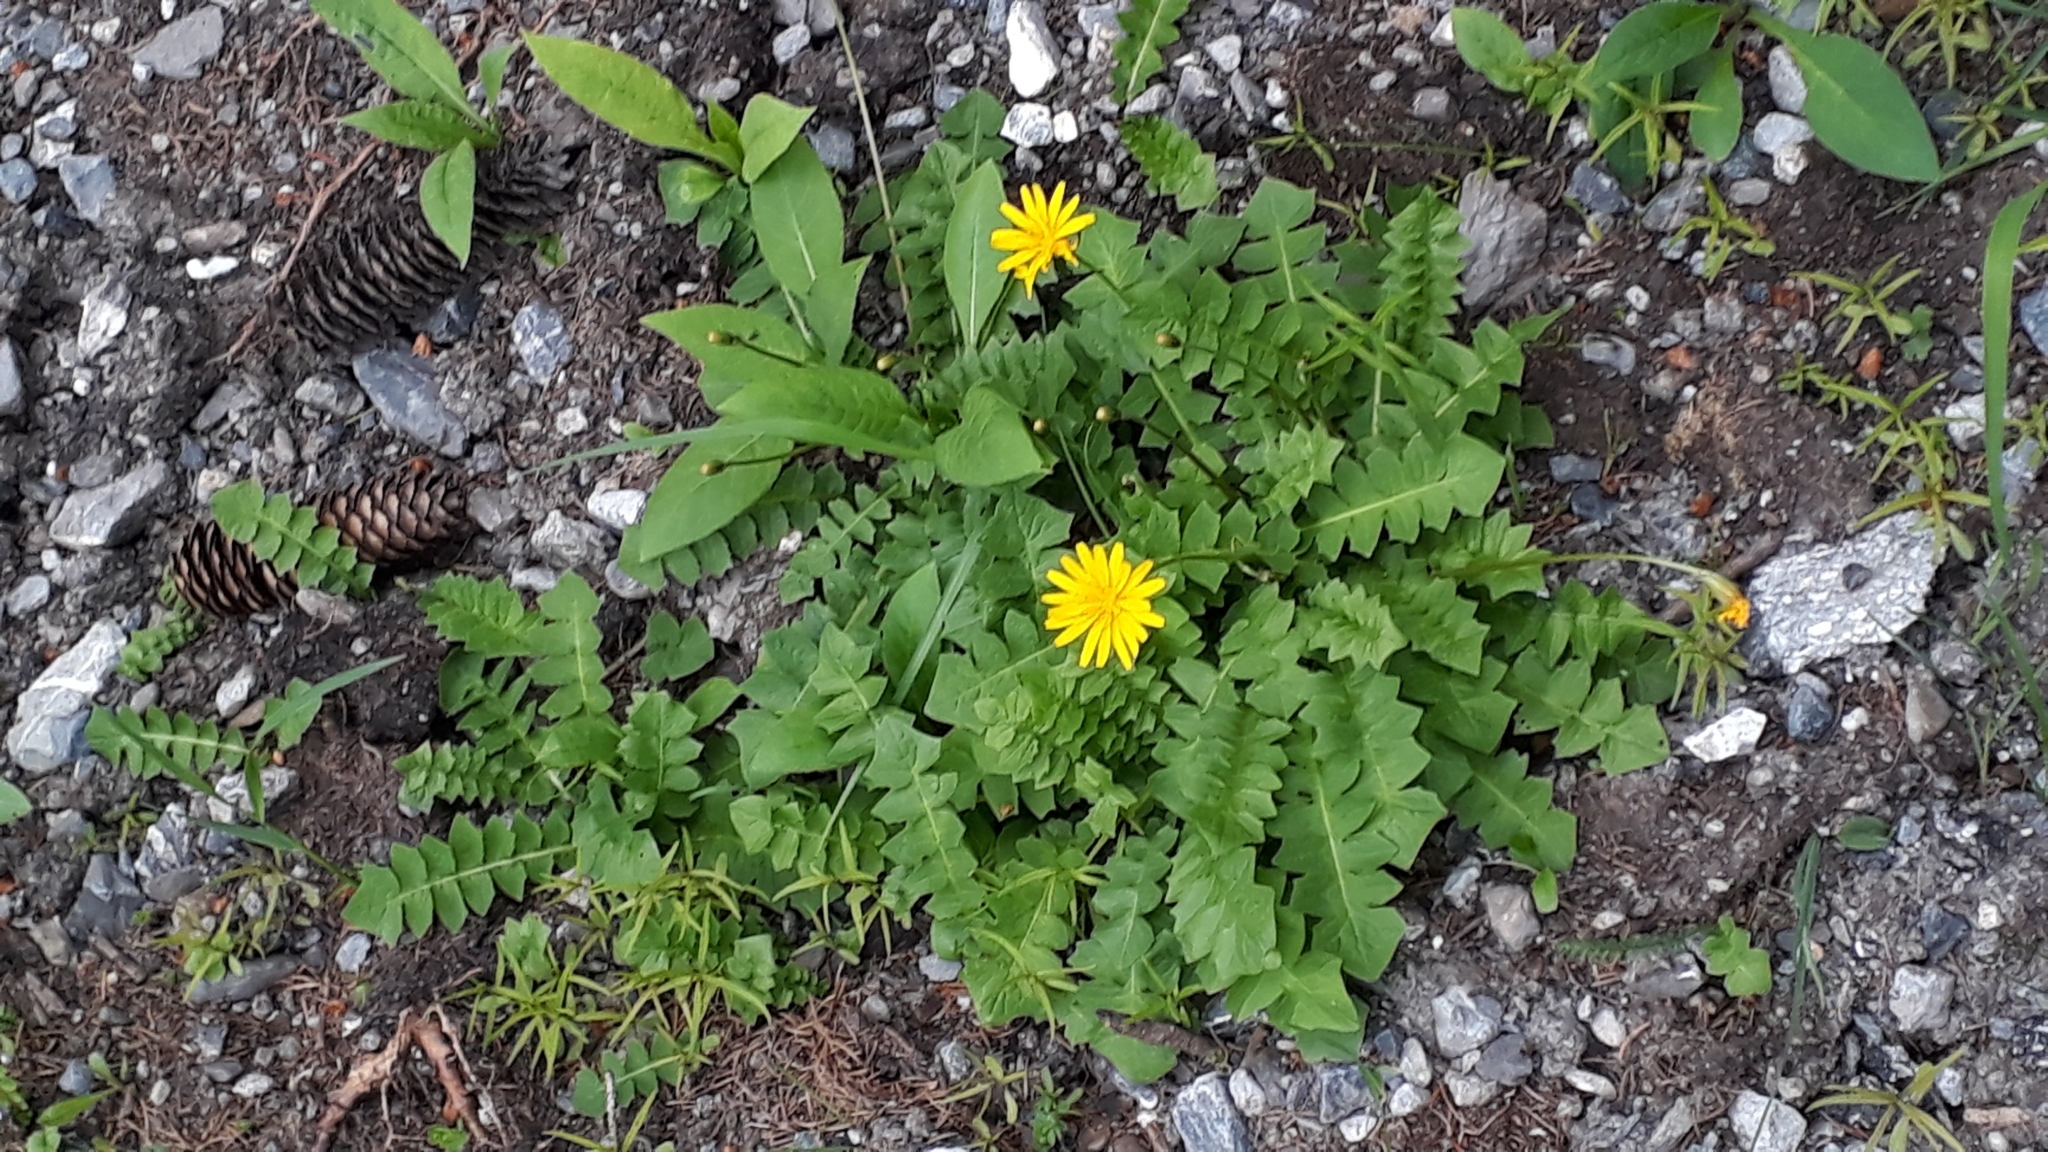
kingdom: Plantae
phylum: Tracheophyta
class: Magnoliopsida
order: Asterales
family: Asteraceae
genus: Aposeris
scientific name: Aposeris foetida
